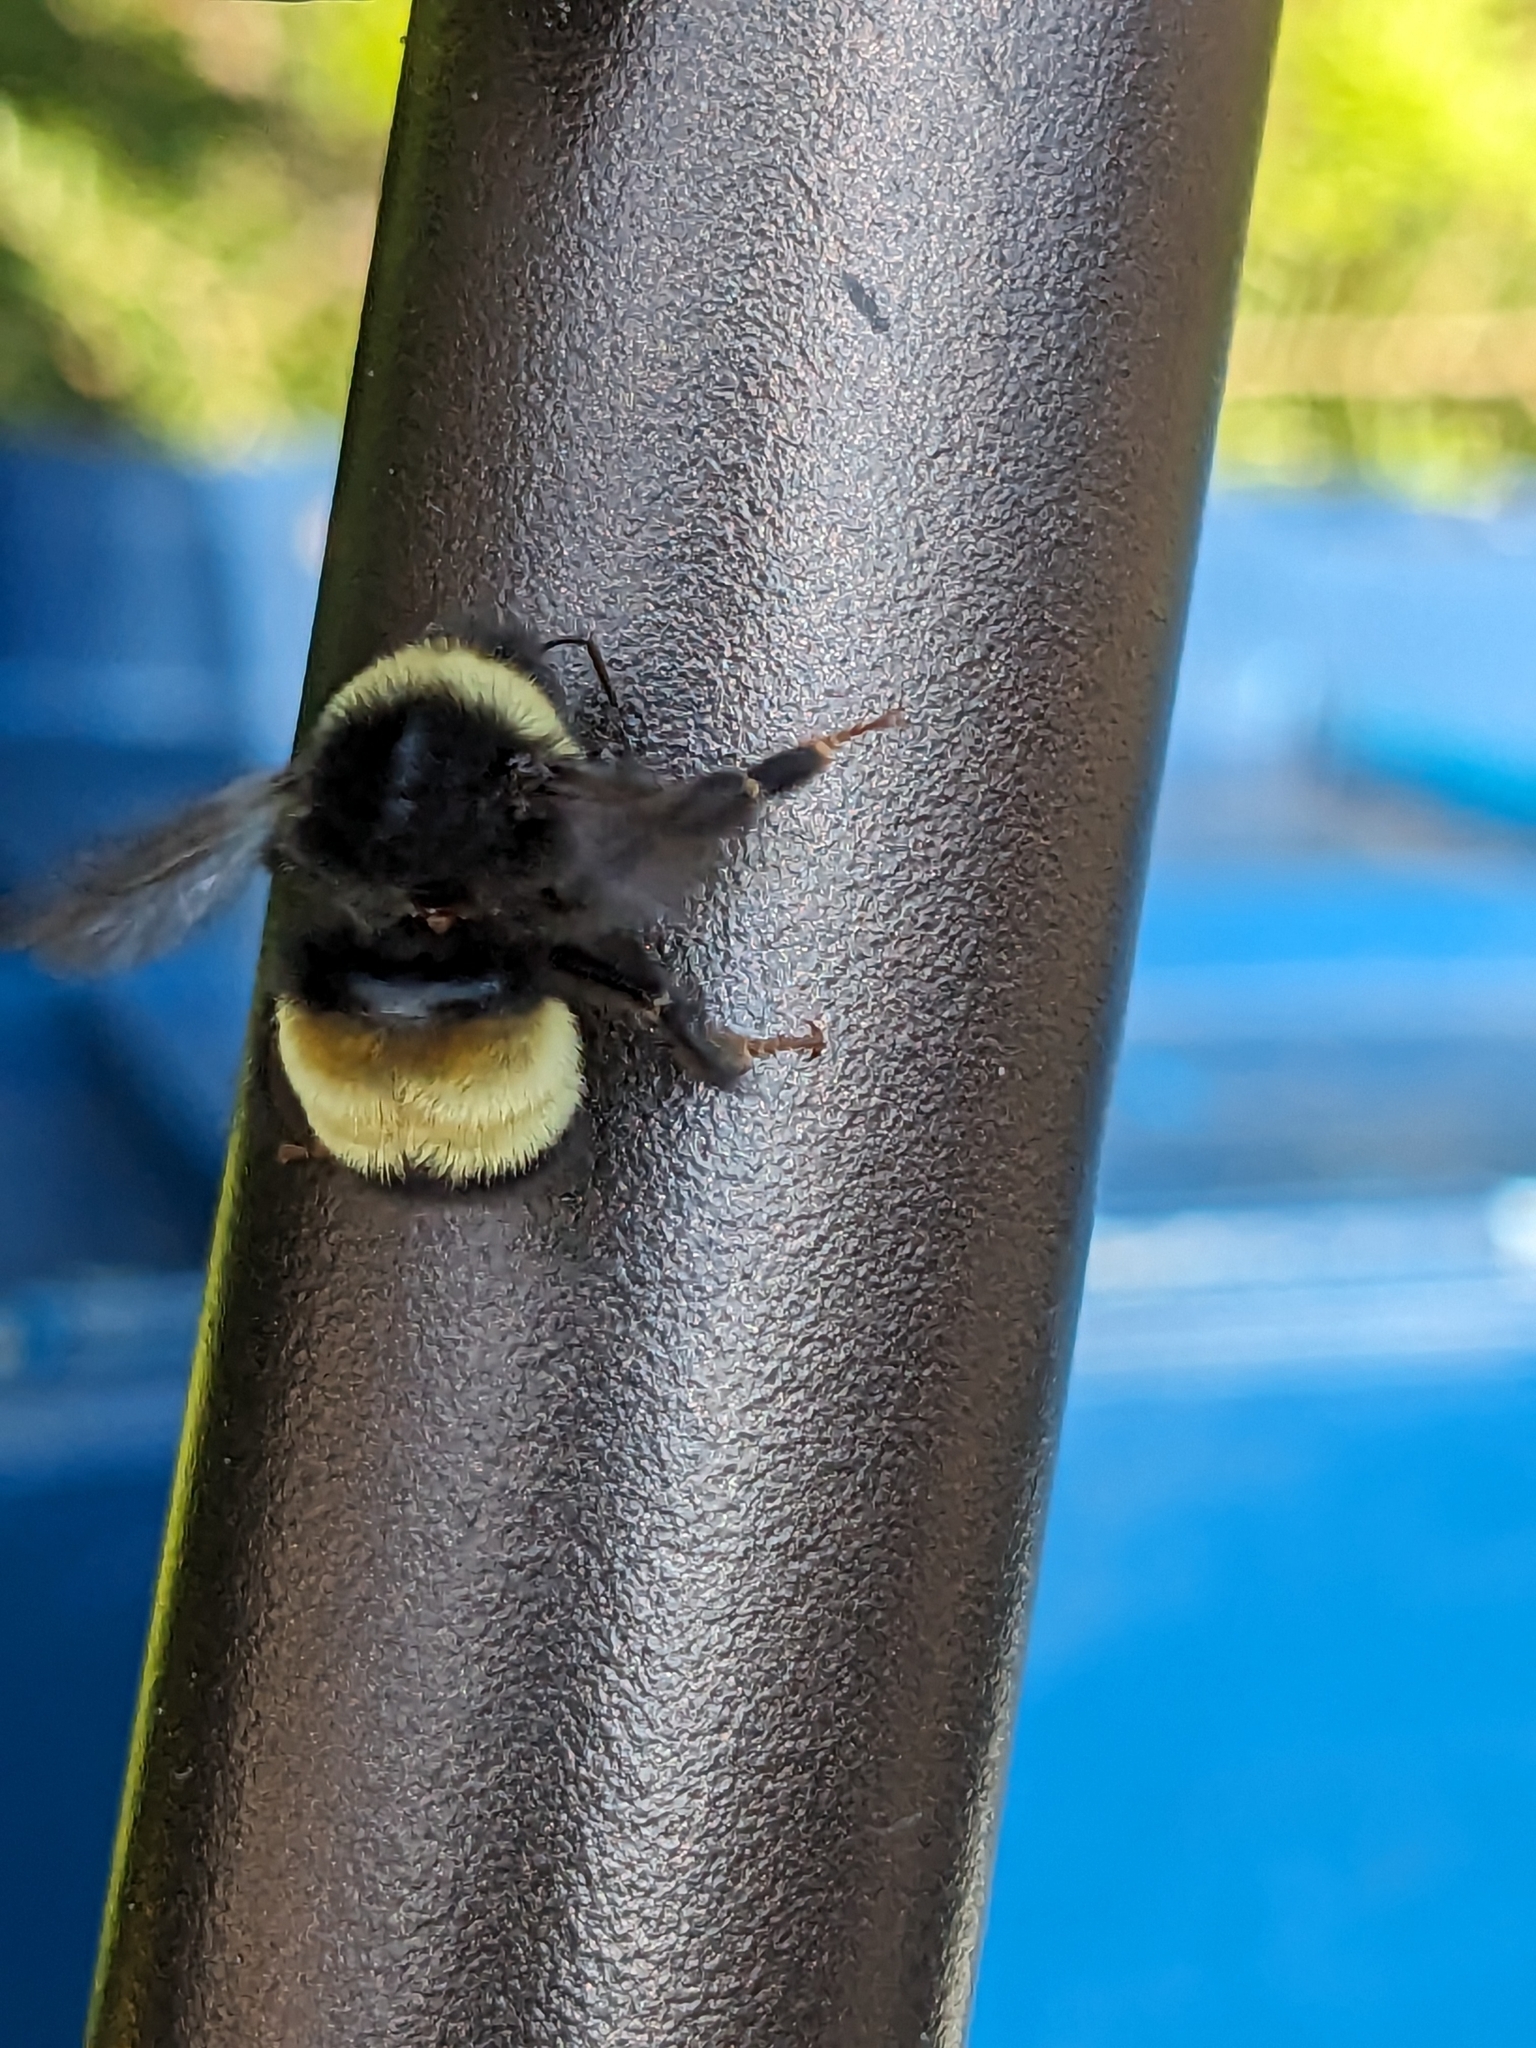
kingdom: Animalia
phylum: Arthropoda
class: Insecta
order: Hymenoptera
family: Apidae
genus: Bombus
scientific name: Bombus terricola
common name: Yellow-banded bumble bee
